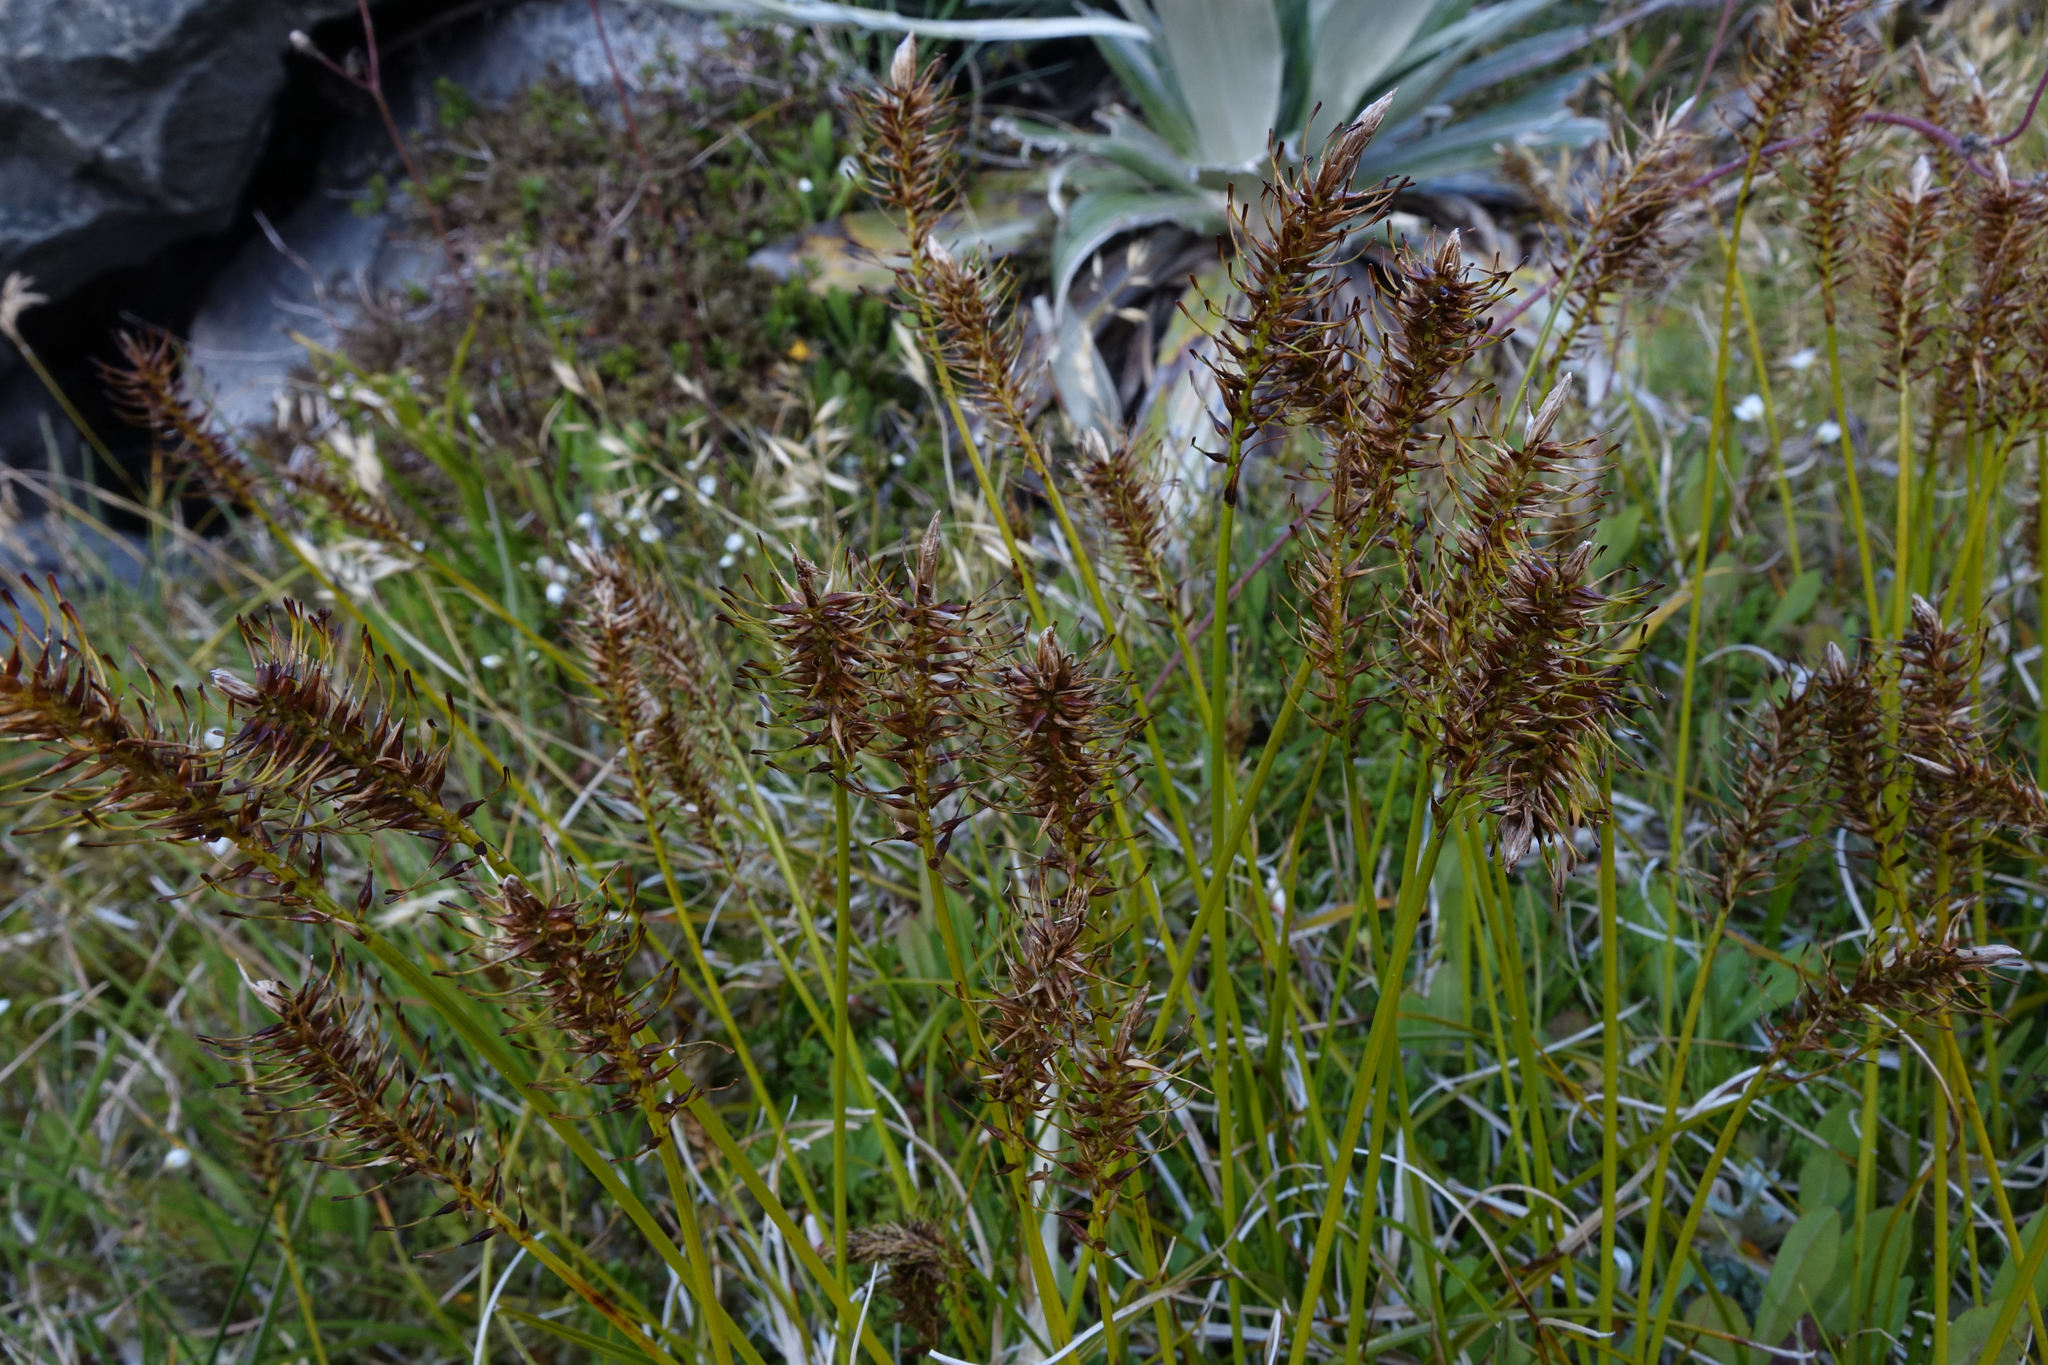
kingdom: Plantae
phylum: Tracheophyta
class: Liliopsida
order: Poales
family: Cyperaceae
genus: Carex
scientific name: Carex edura
